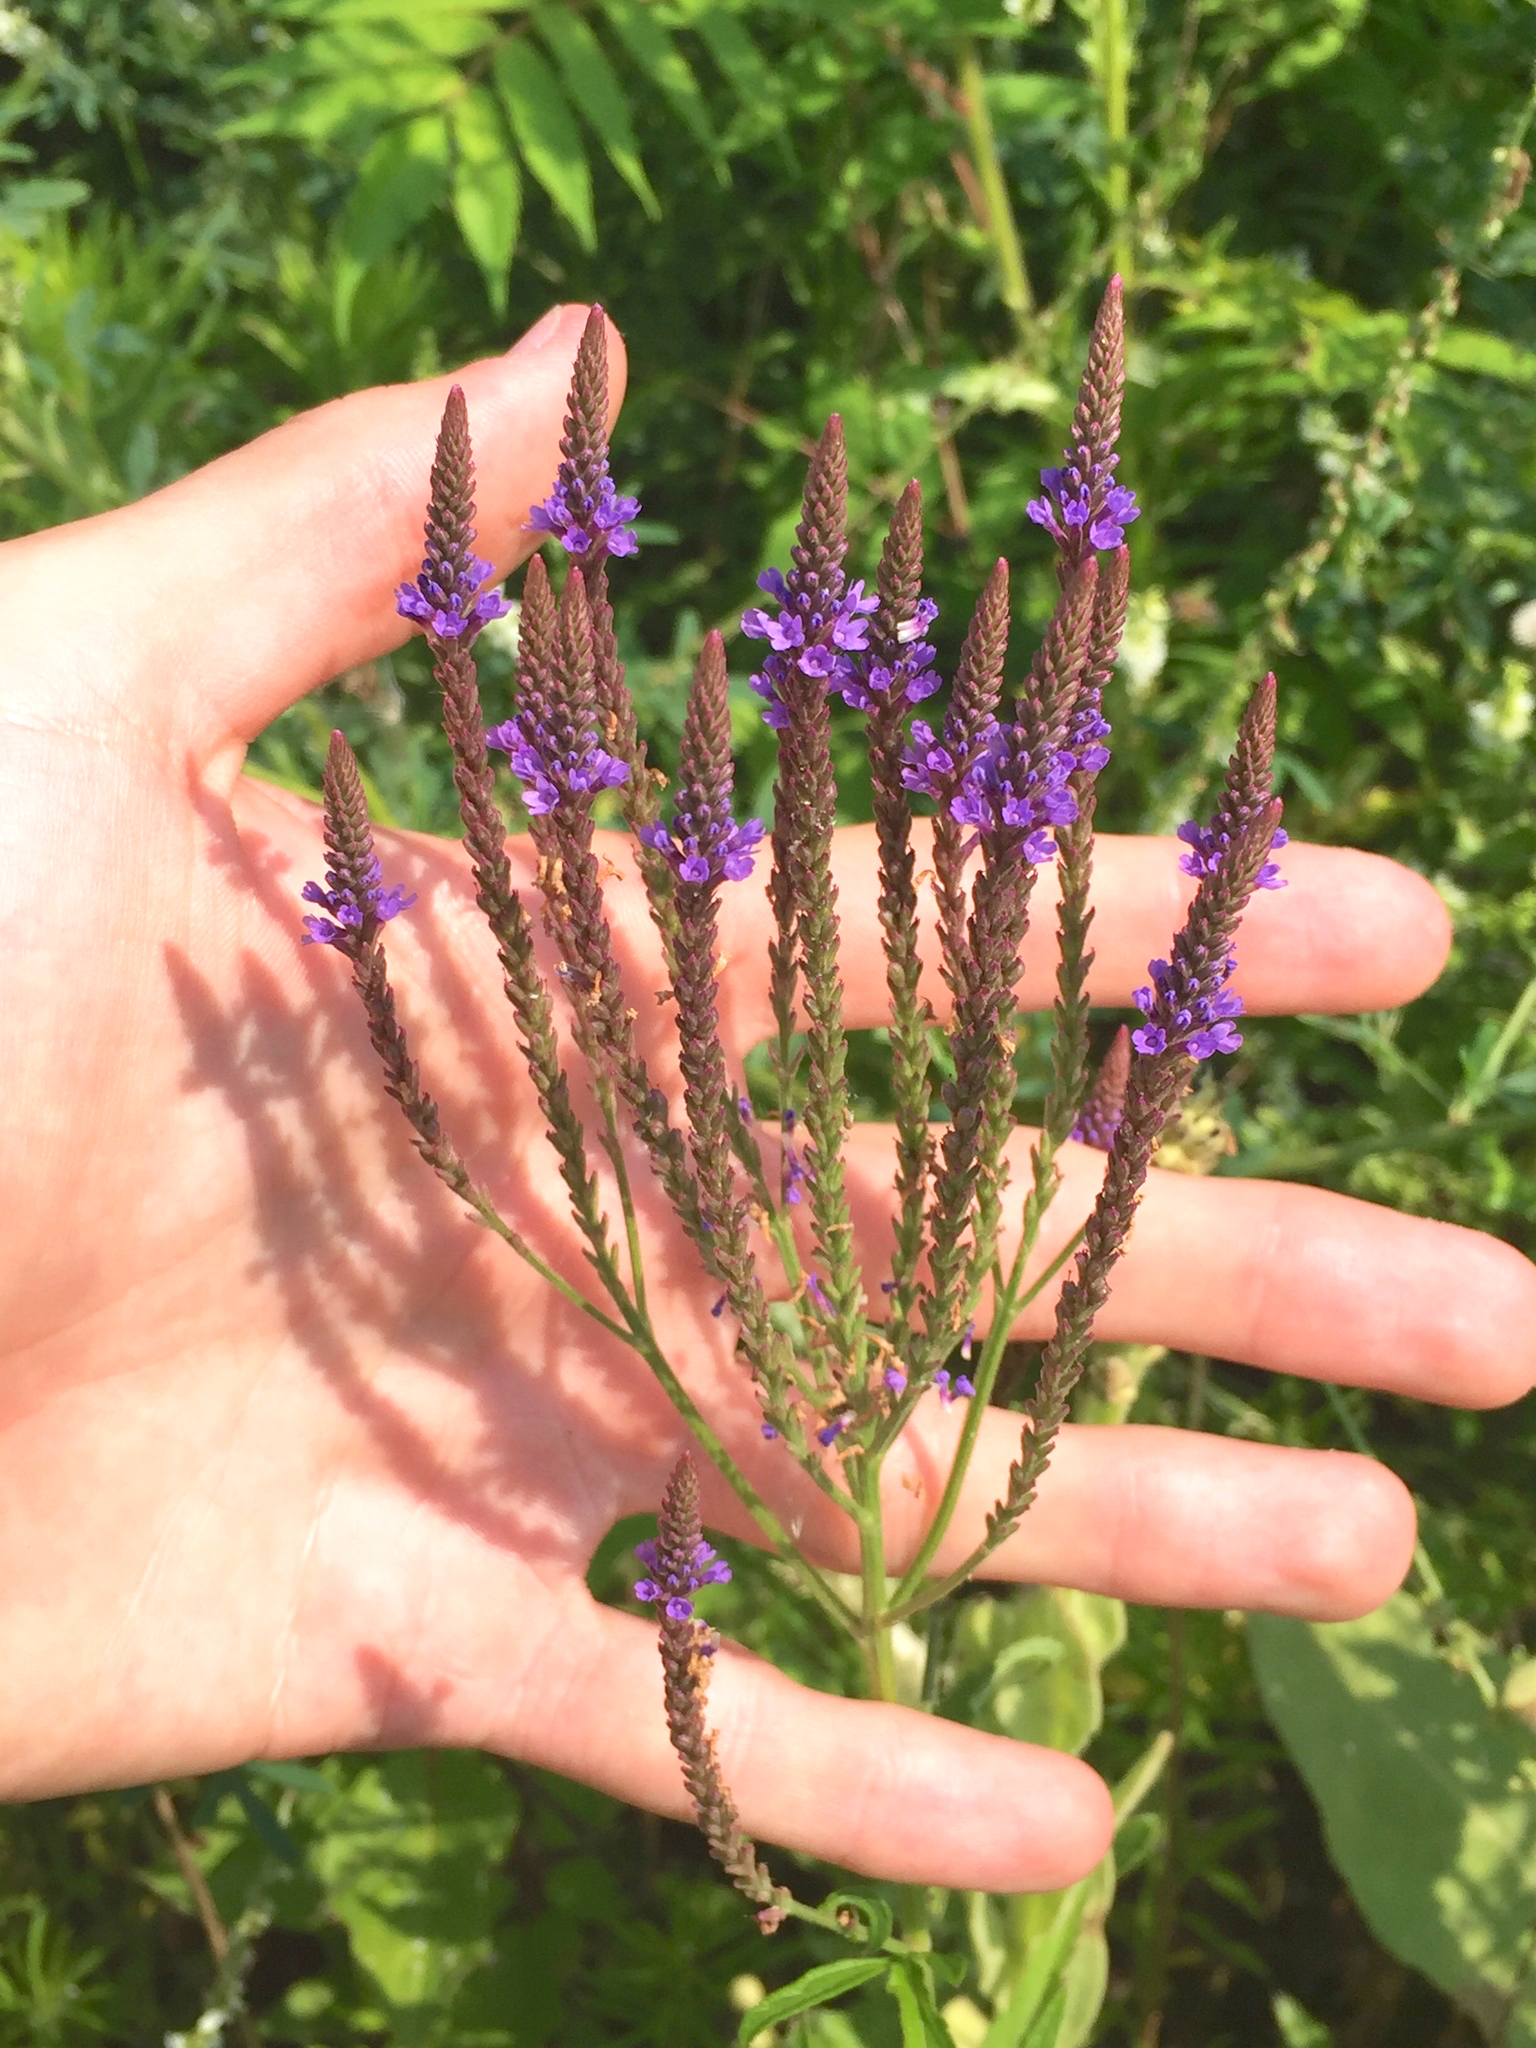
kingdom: Plantae
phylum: Tracheophyta
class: Magnoliopsida
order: Lamiales
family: Verbenaceae
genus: Verbena
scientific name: Verbena hastata
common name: American blue vervain
